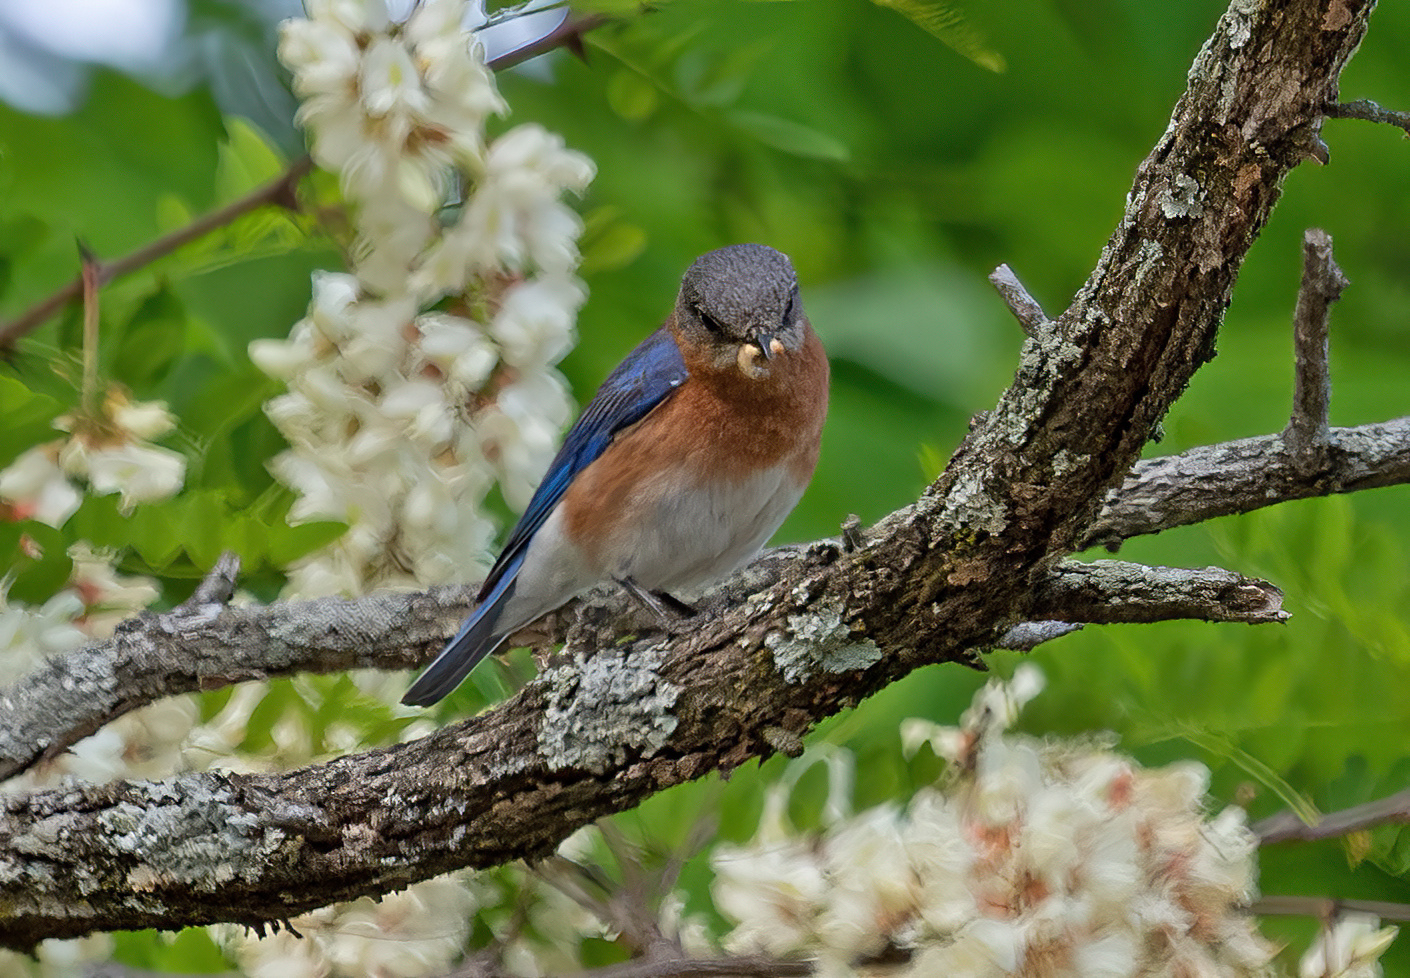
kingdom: Animalia
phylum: Chordata
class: Aves
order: Passeriformes
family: Turdidae
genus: Sialia
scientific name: Sialia sialis
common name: Eastern bluebird
